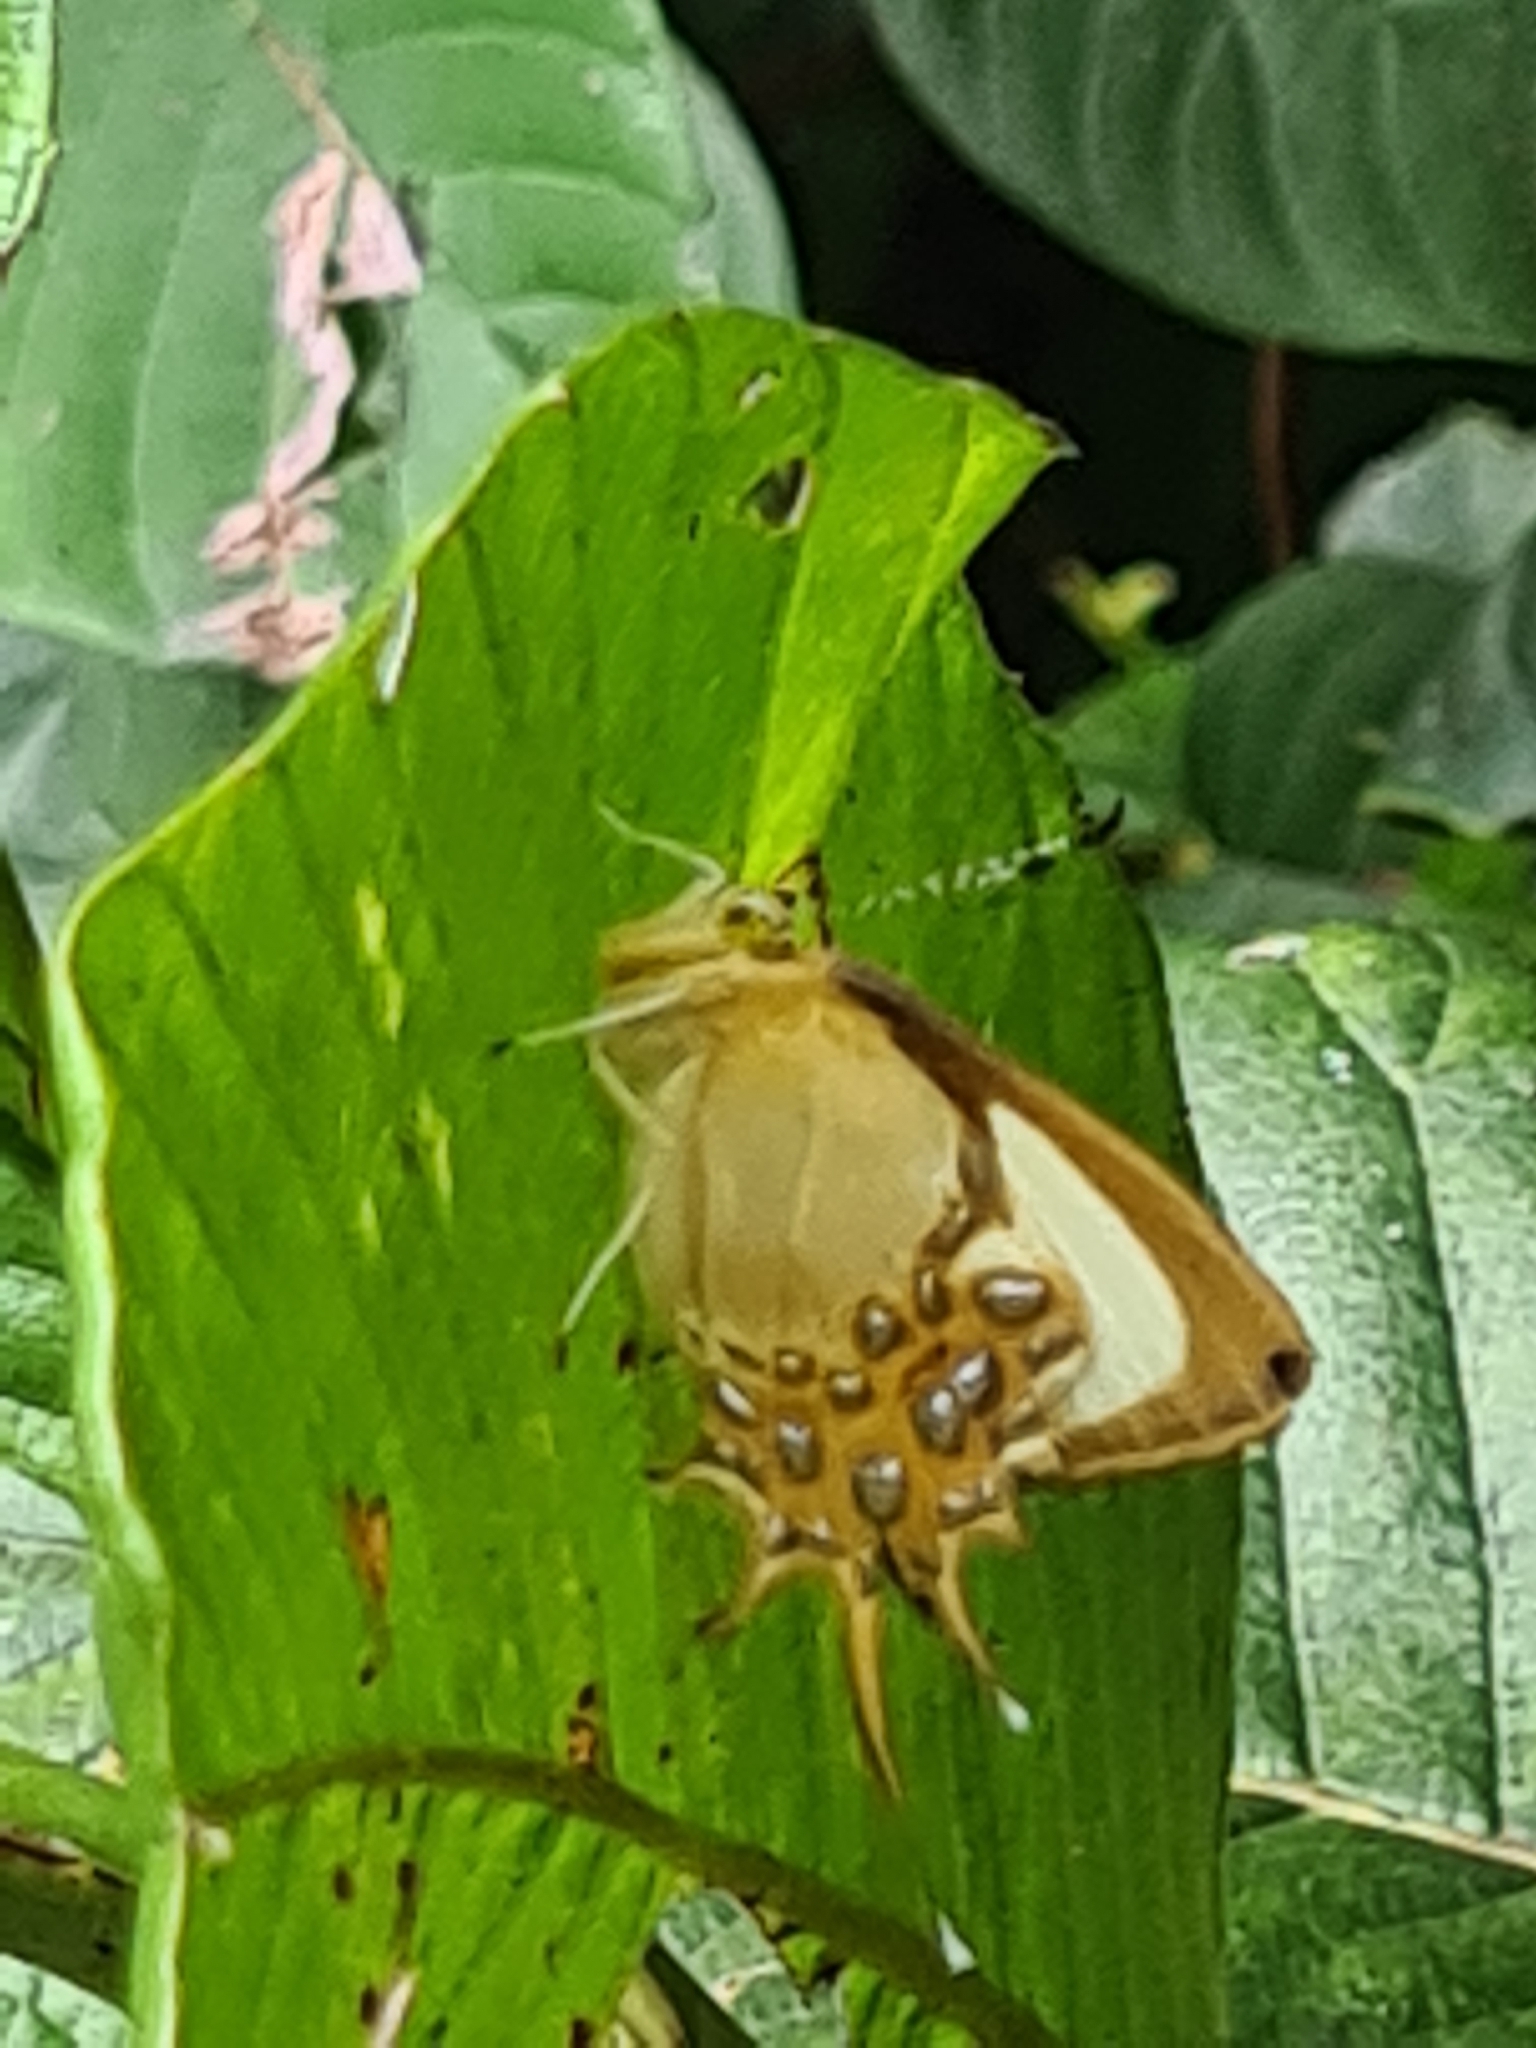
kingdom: Animalia
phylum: Arthropoda
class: Insecta
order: Lepidoptera
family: Riodinidae
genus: Helicopis
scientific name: Helicopis cupido
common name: Spangled cupid
